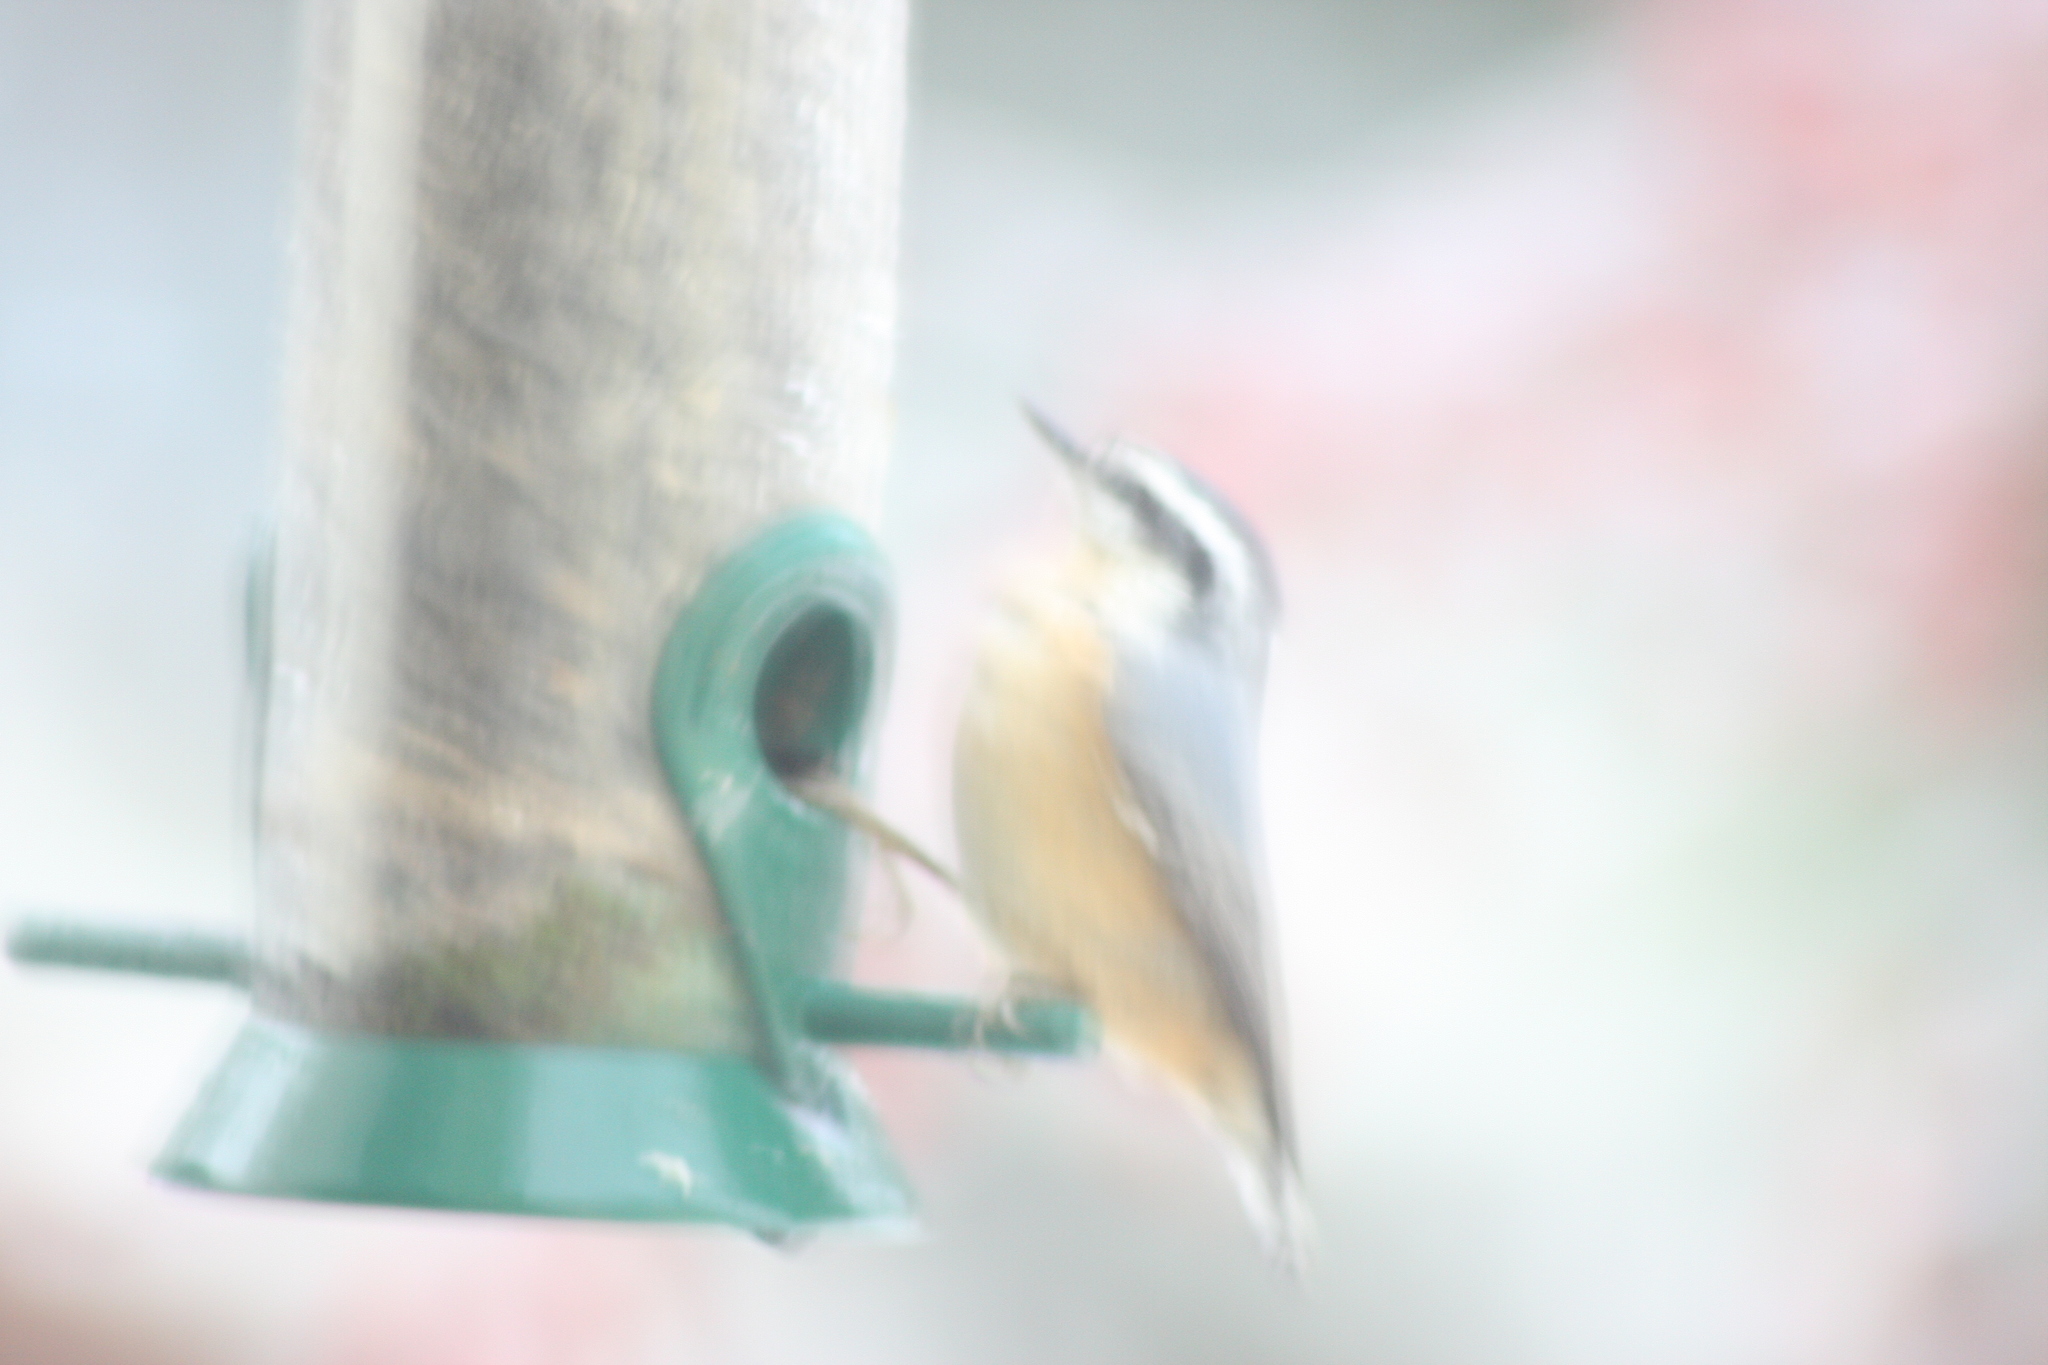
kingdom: Animalia
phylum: Chordata
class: Aves
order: Passeriformes
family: Sittidae
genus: Sitta
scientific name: Sitta canadensis
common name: Red-breasted nuthatch
